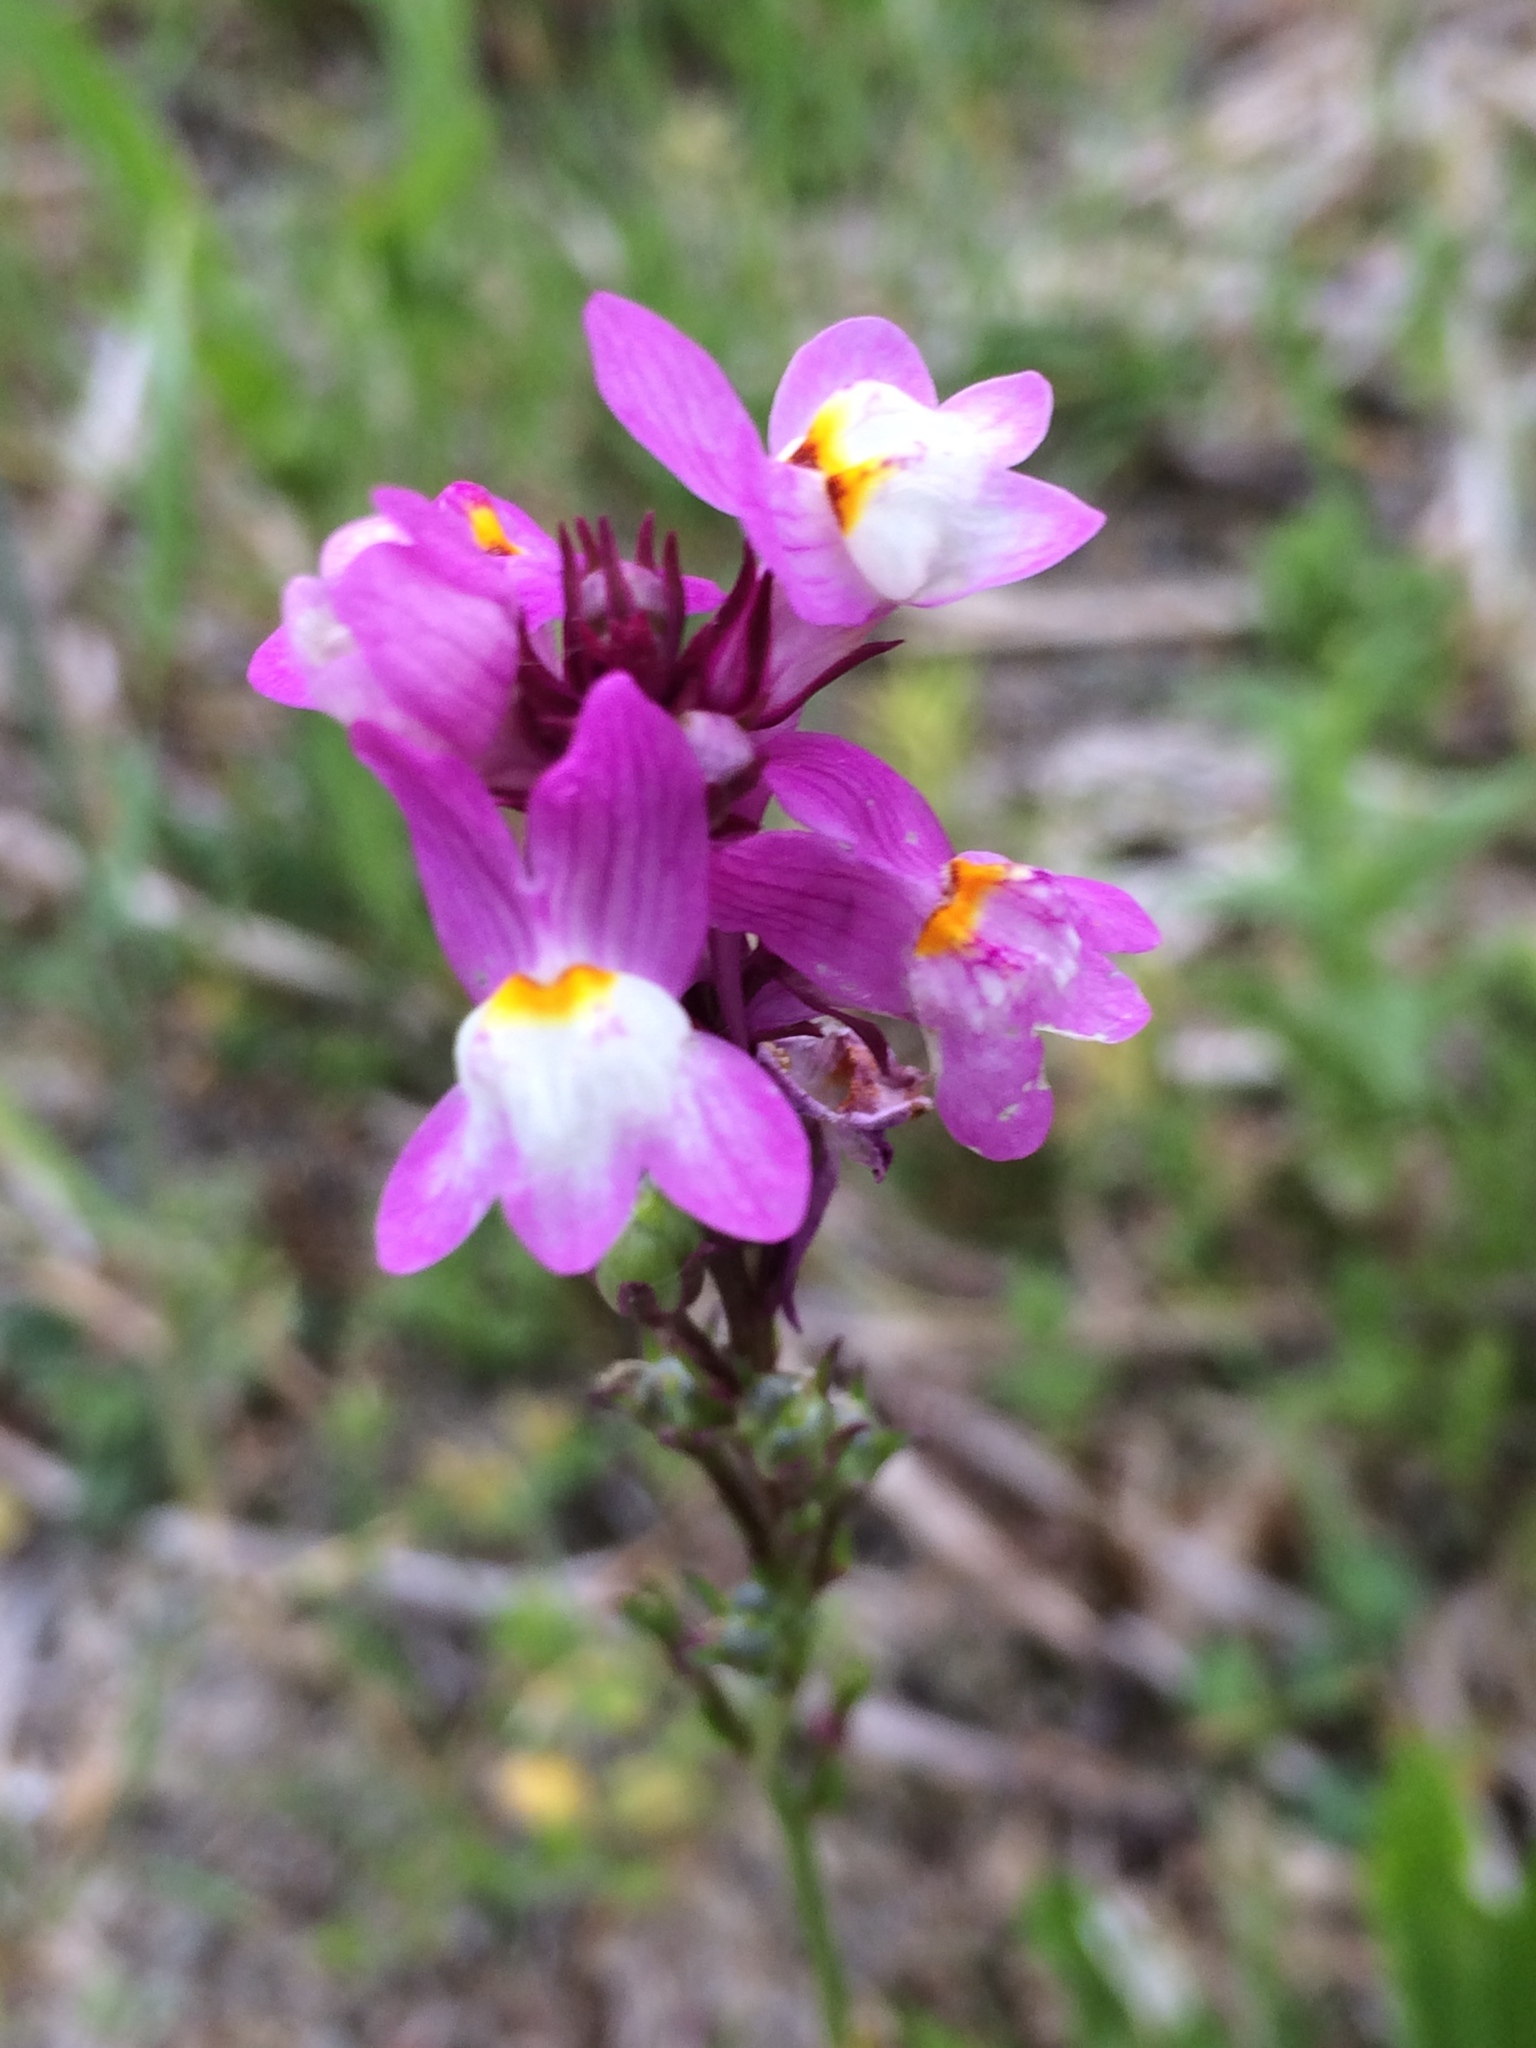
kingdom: Plantae
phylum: Tracheophyta
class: Magnoliopsida
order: Lamiales
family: Plantaginaceae
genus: Linaria
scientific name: Linaria maroccana
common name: Moroccan toadflax
